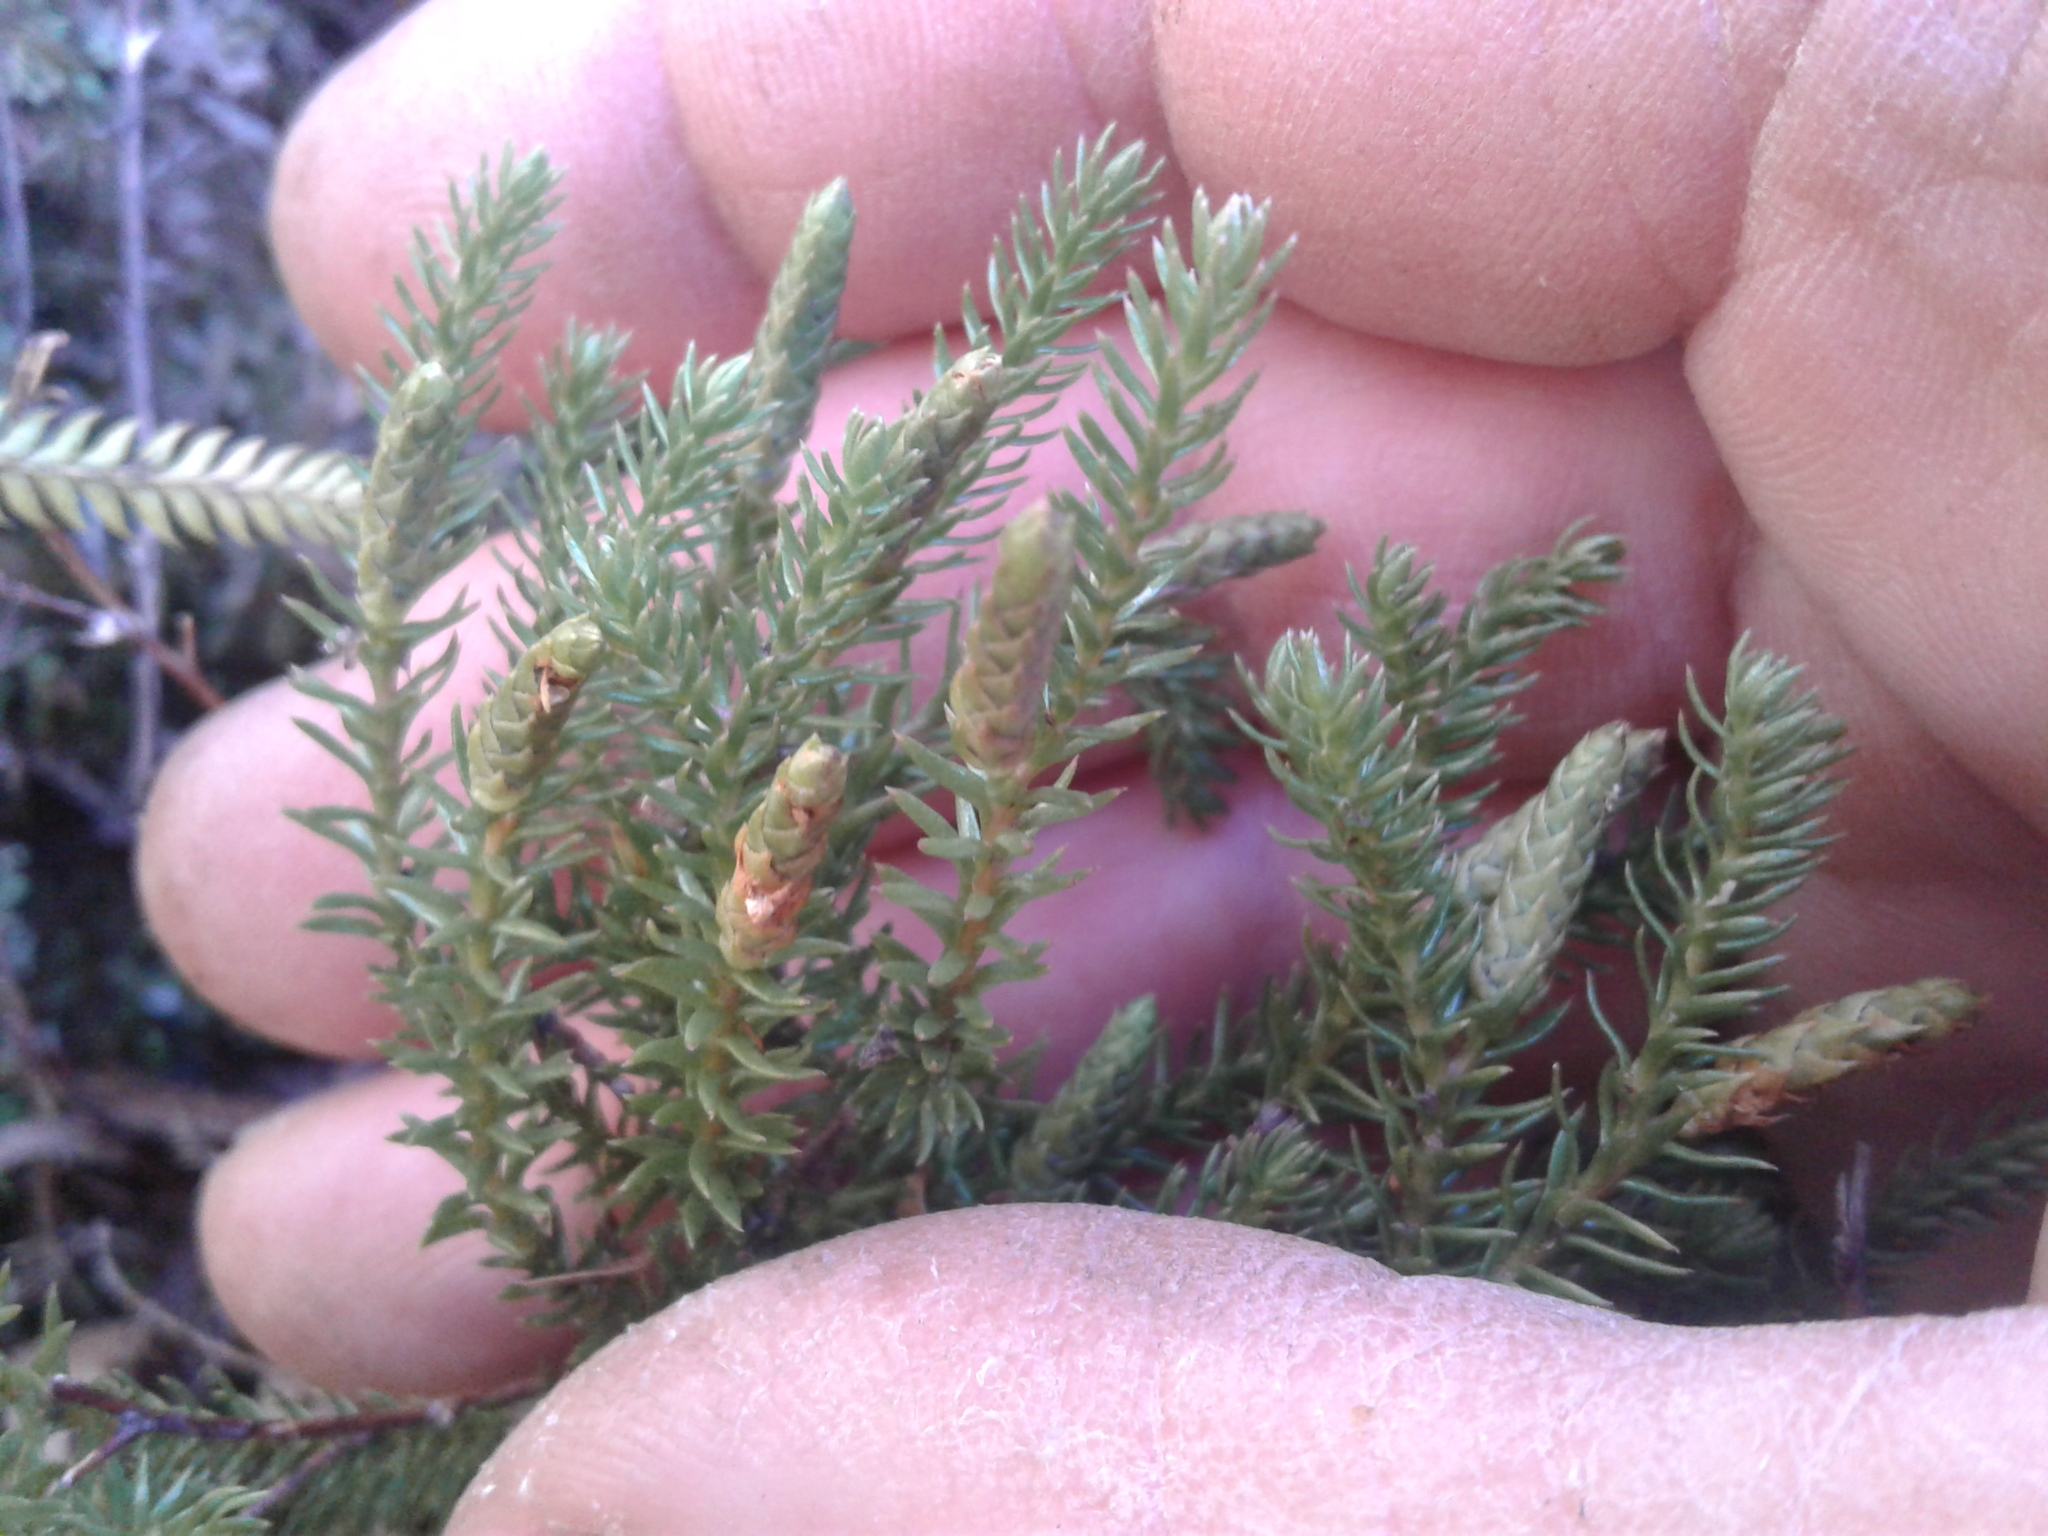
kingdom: Plantae
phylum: Tracheophyta
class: Lycopodiopsida
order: Lycopodiales
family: Lycopodiaceae
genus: Lateristachys
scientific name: Lateristachys lateralis
